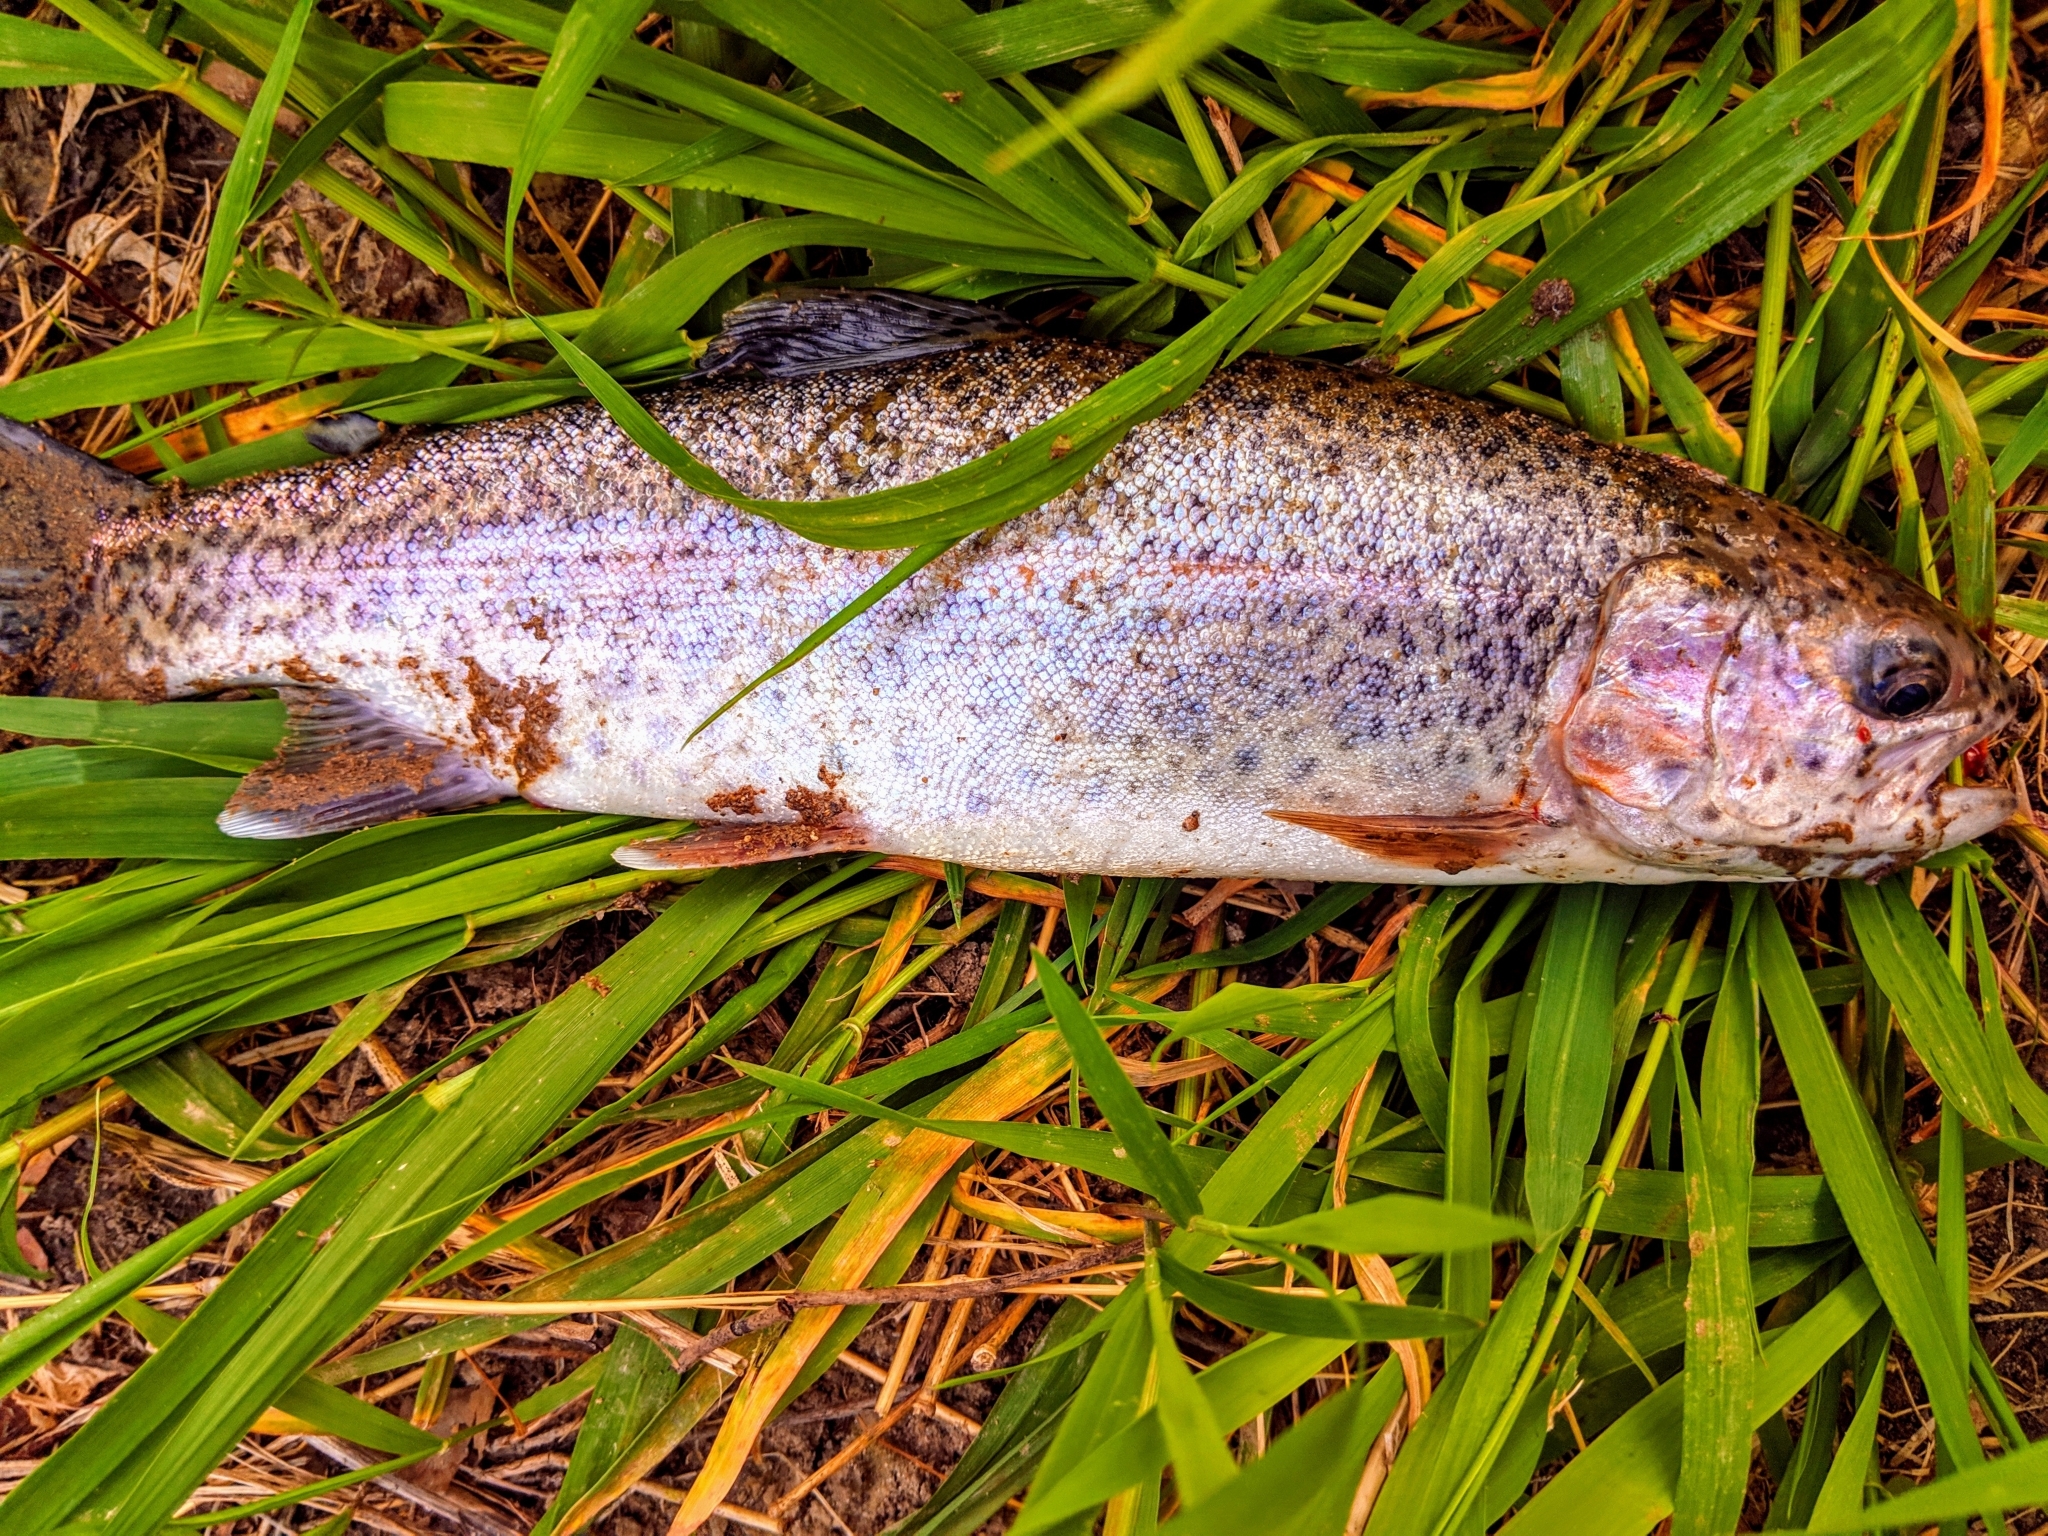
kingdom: Animalia
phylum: Chordata
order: Salmoniformes
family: Salmonidae
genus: Oncorhynchus
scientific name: Oncorhynchus mykiss
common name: Rainbow trout
